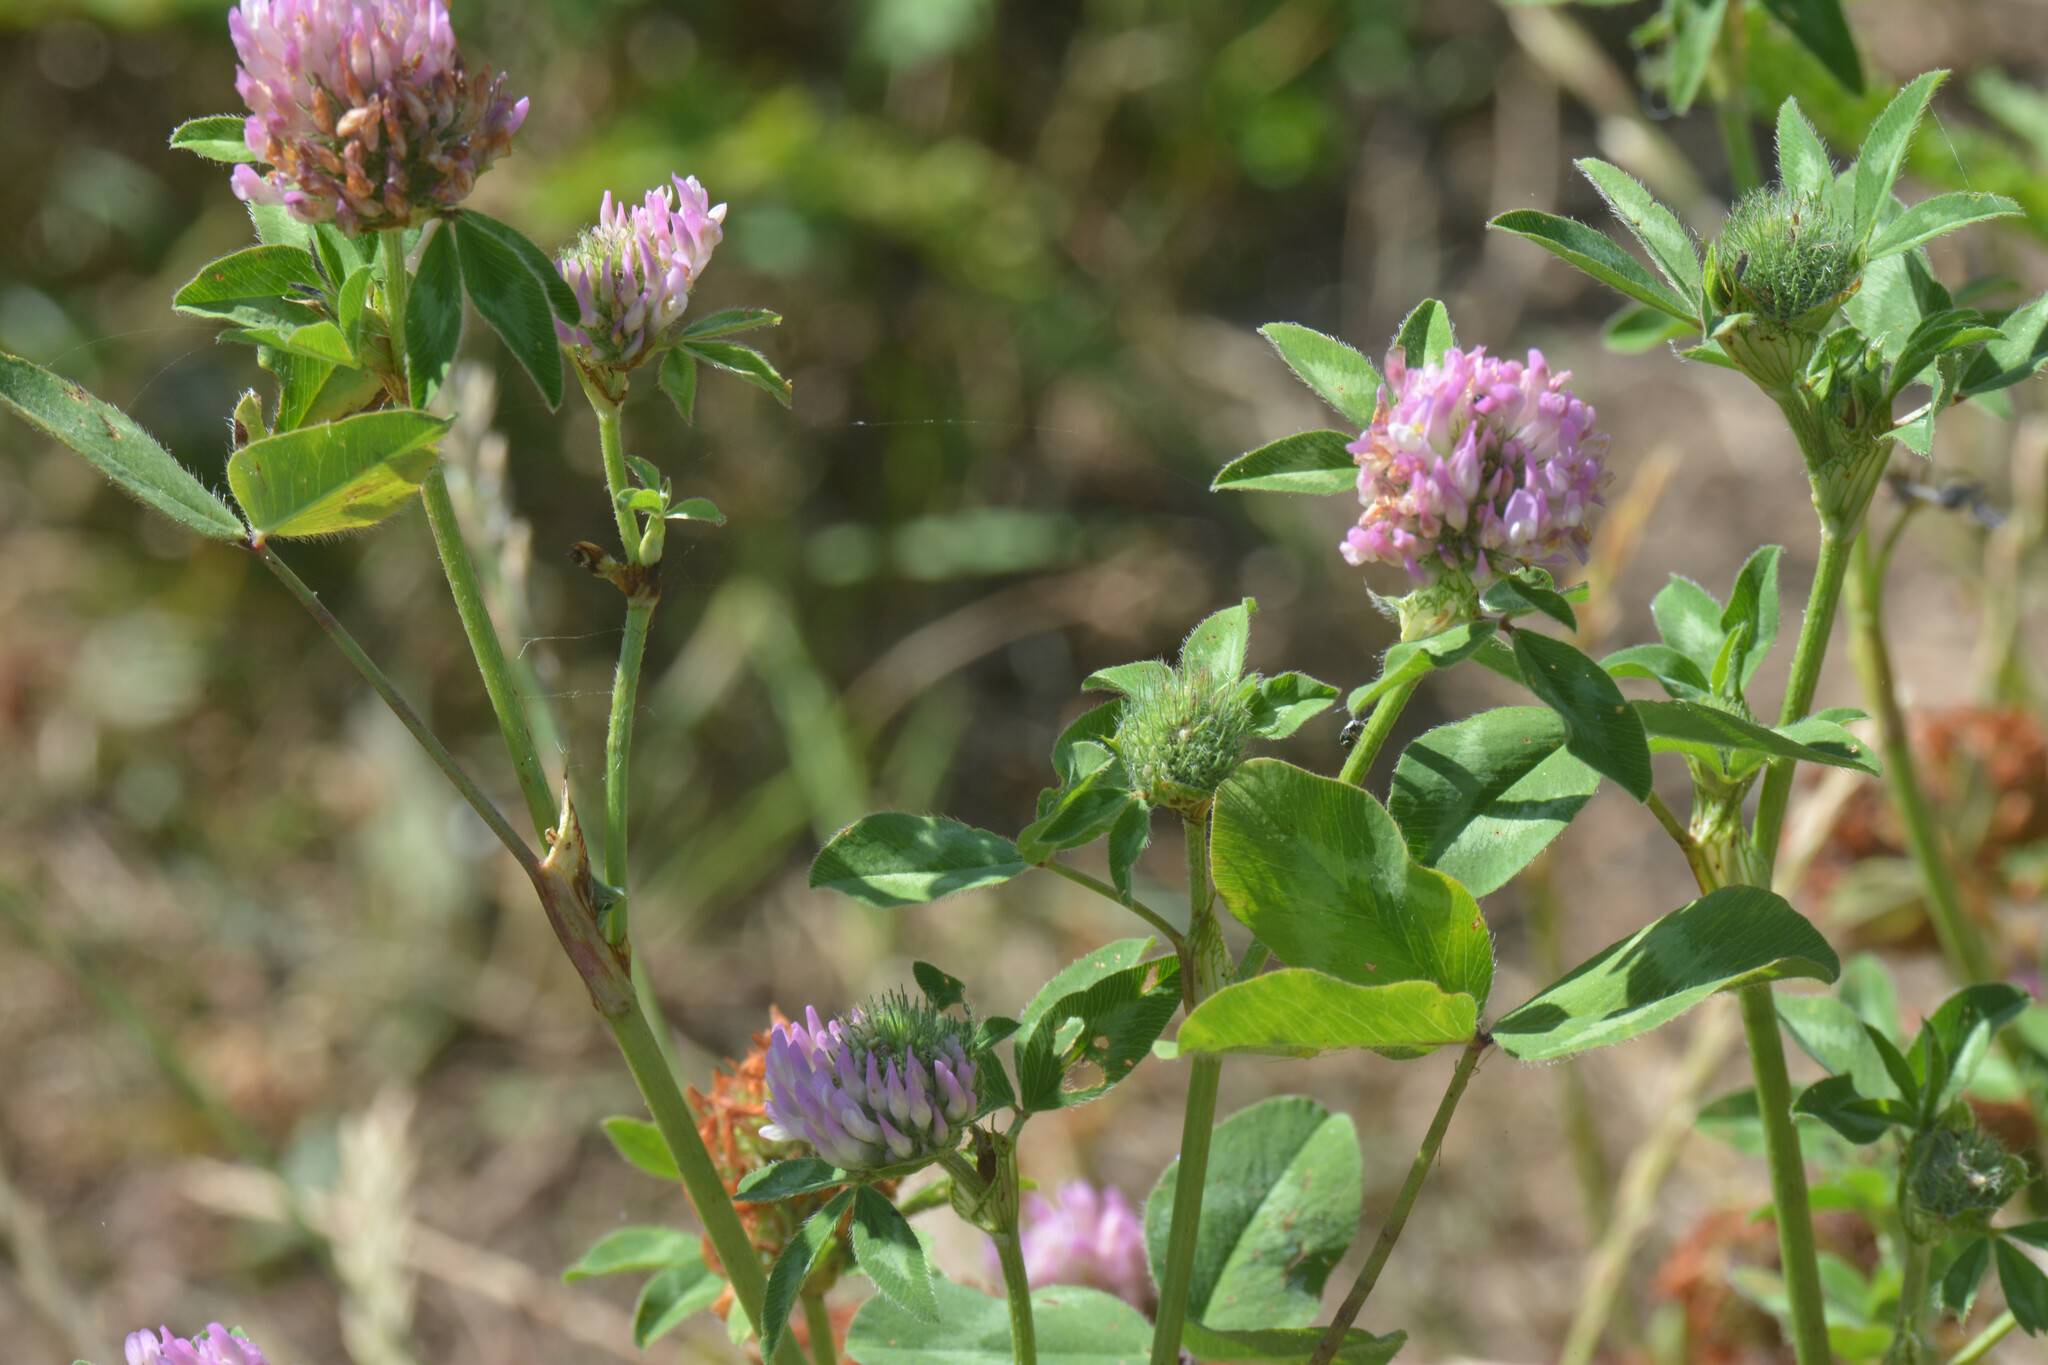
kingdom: Plantae
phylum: Tracheophyta
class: Magnoliopsida
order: Fabales
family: Fabaceae
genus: Trifolium
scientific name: Trifolium pratense
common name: Red clover
